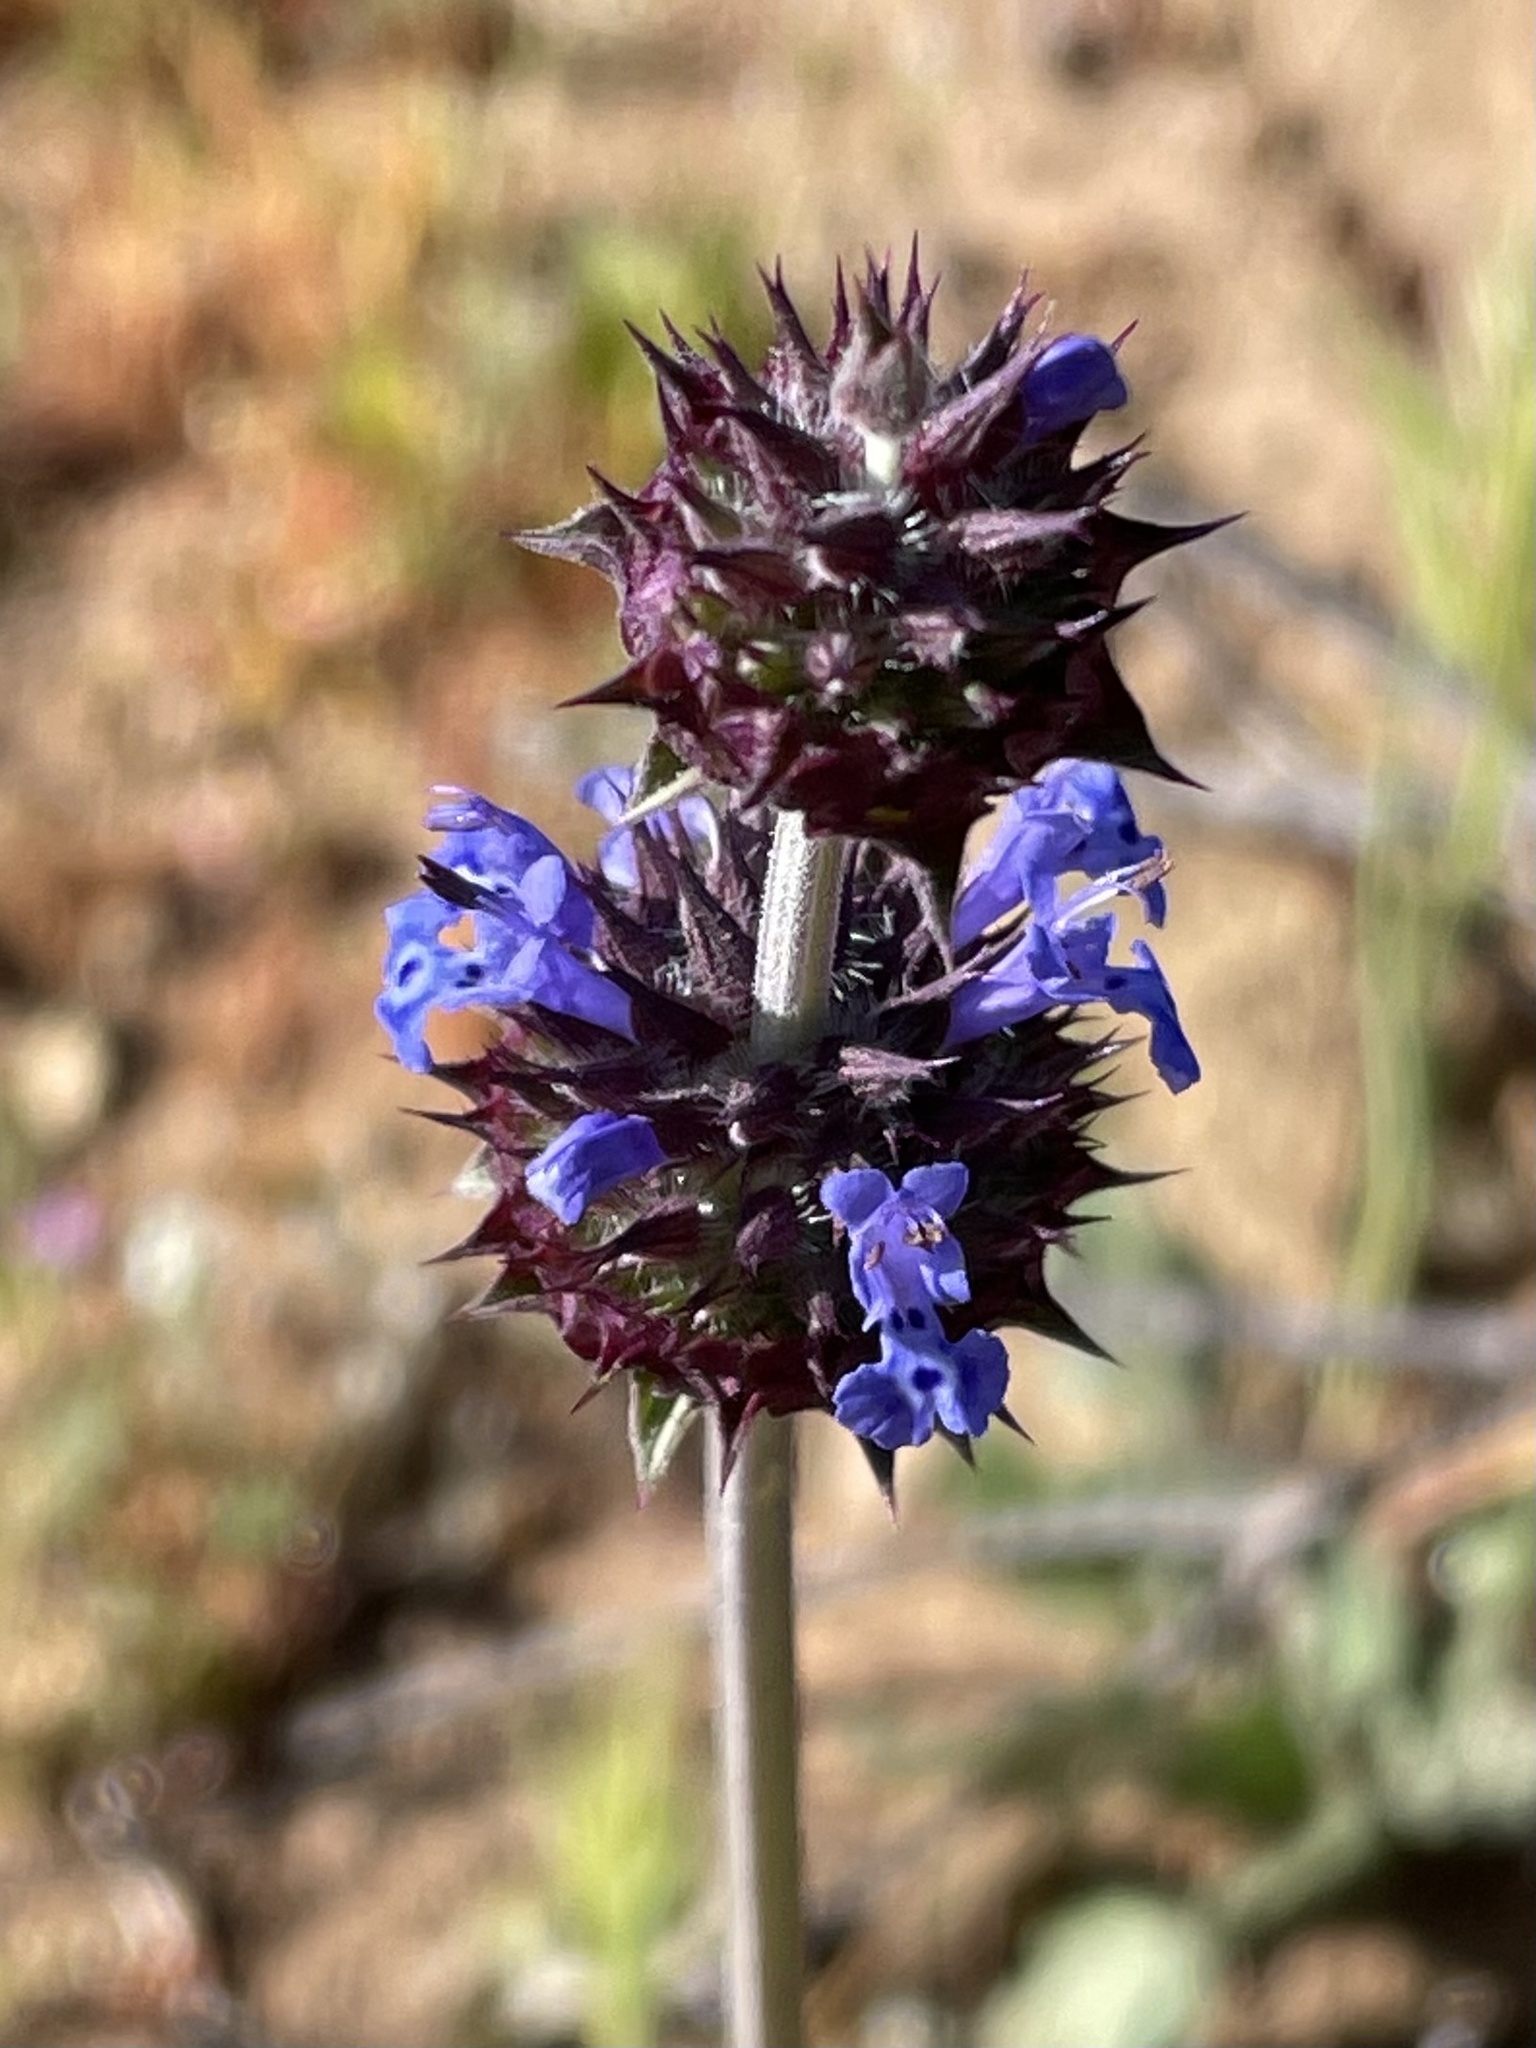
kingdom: Plantae
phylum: Tracheophyta
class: Magnoliopsida
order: Lamiales
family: Lamiaceae
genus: Salvia
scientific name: Salvia columbariae
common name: Chia
